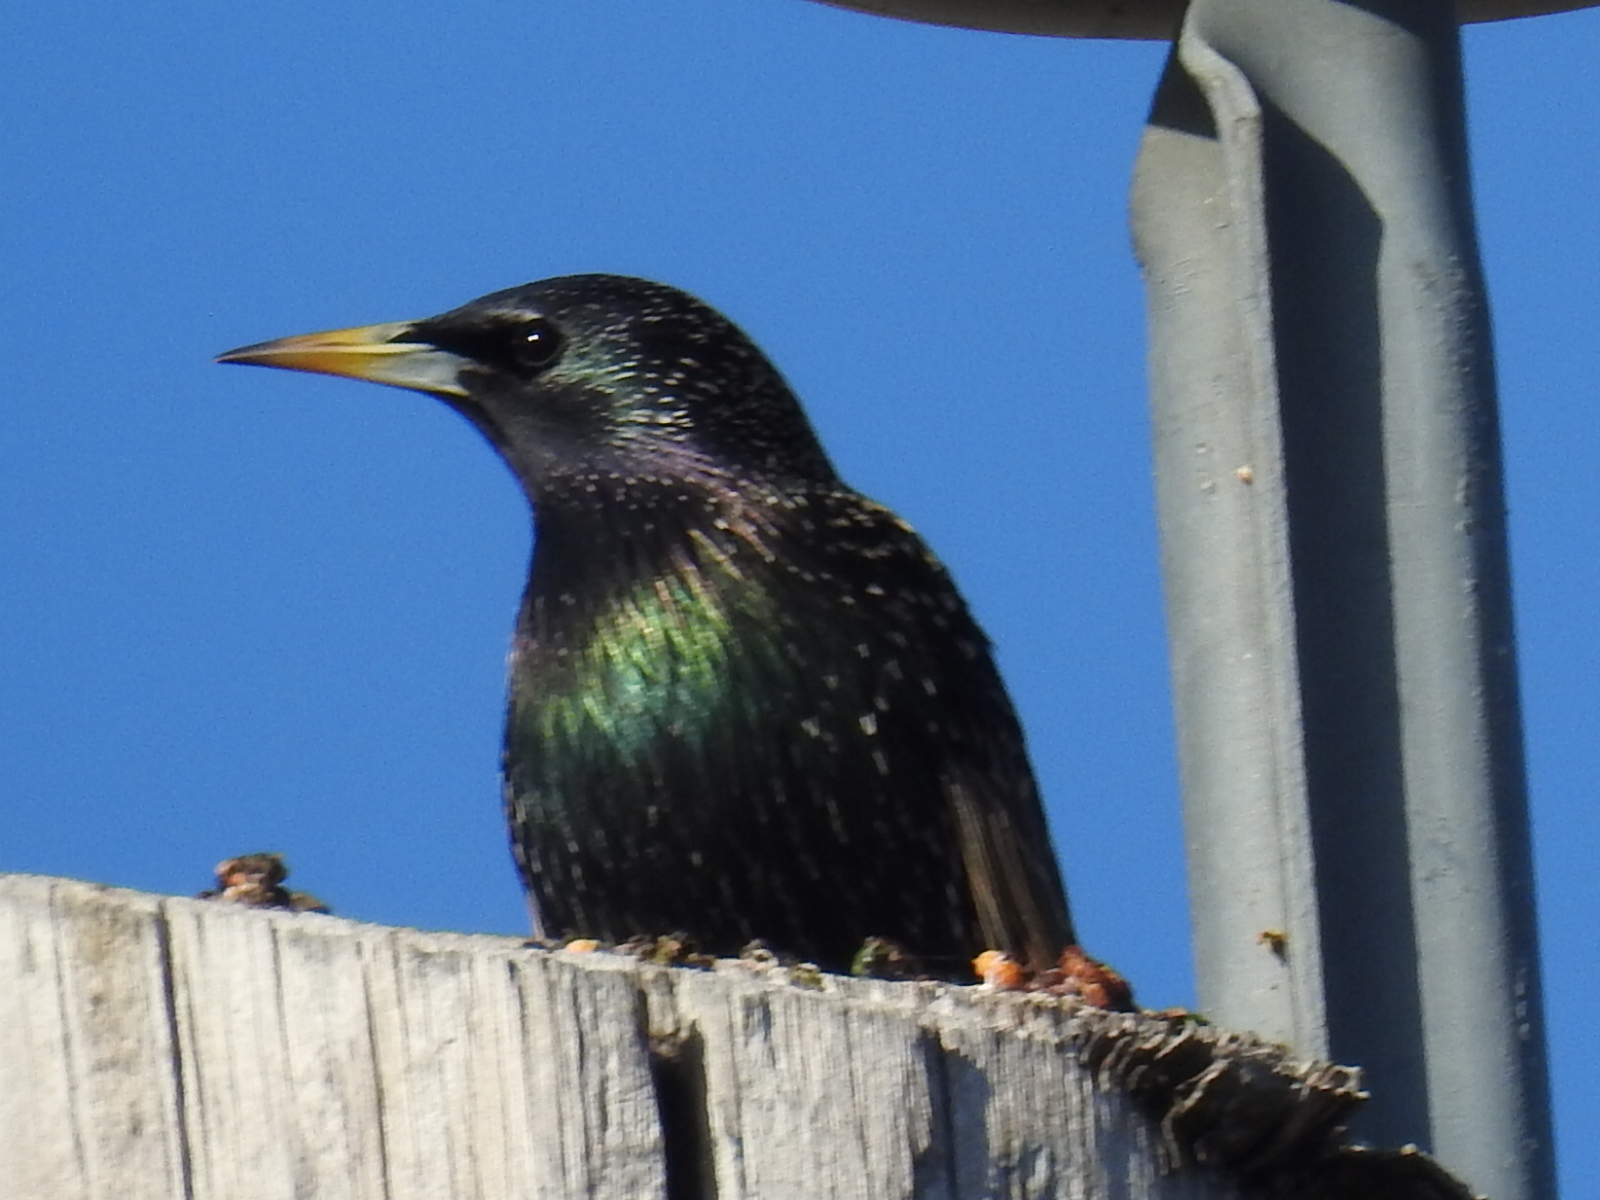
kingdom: Animalia
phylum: Chordata
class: Aves
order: Passeriformes
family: Sturnidae
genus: Sturnus
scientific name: Sturnus vulgaris
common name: Common starling
